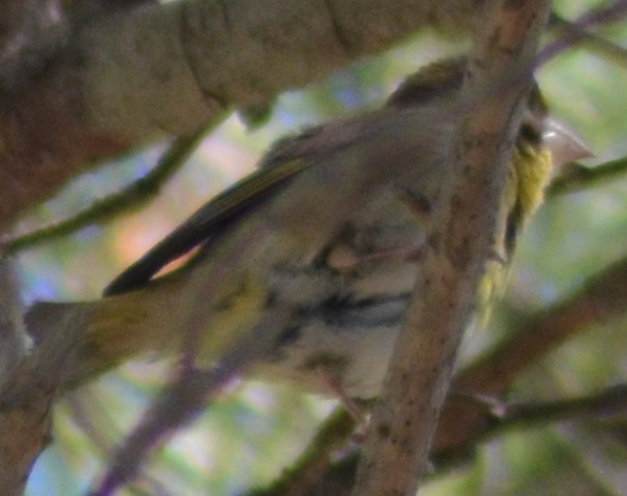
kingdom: Plantae
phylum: Tracheophyta
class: Liliopsida
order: Poales
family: Poaceae
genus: Chloris
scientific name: Chloris chloris
